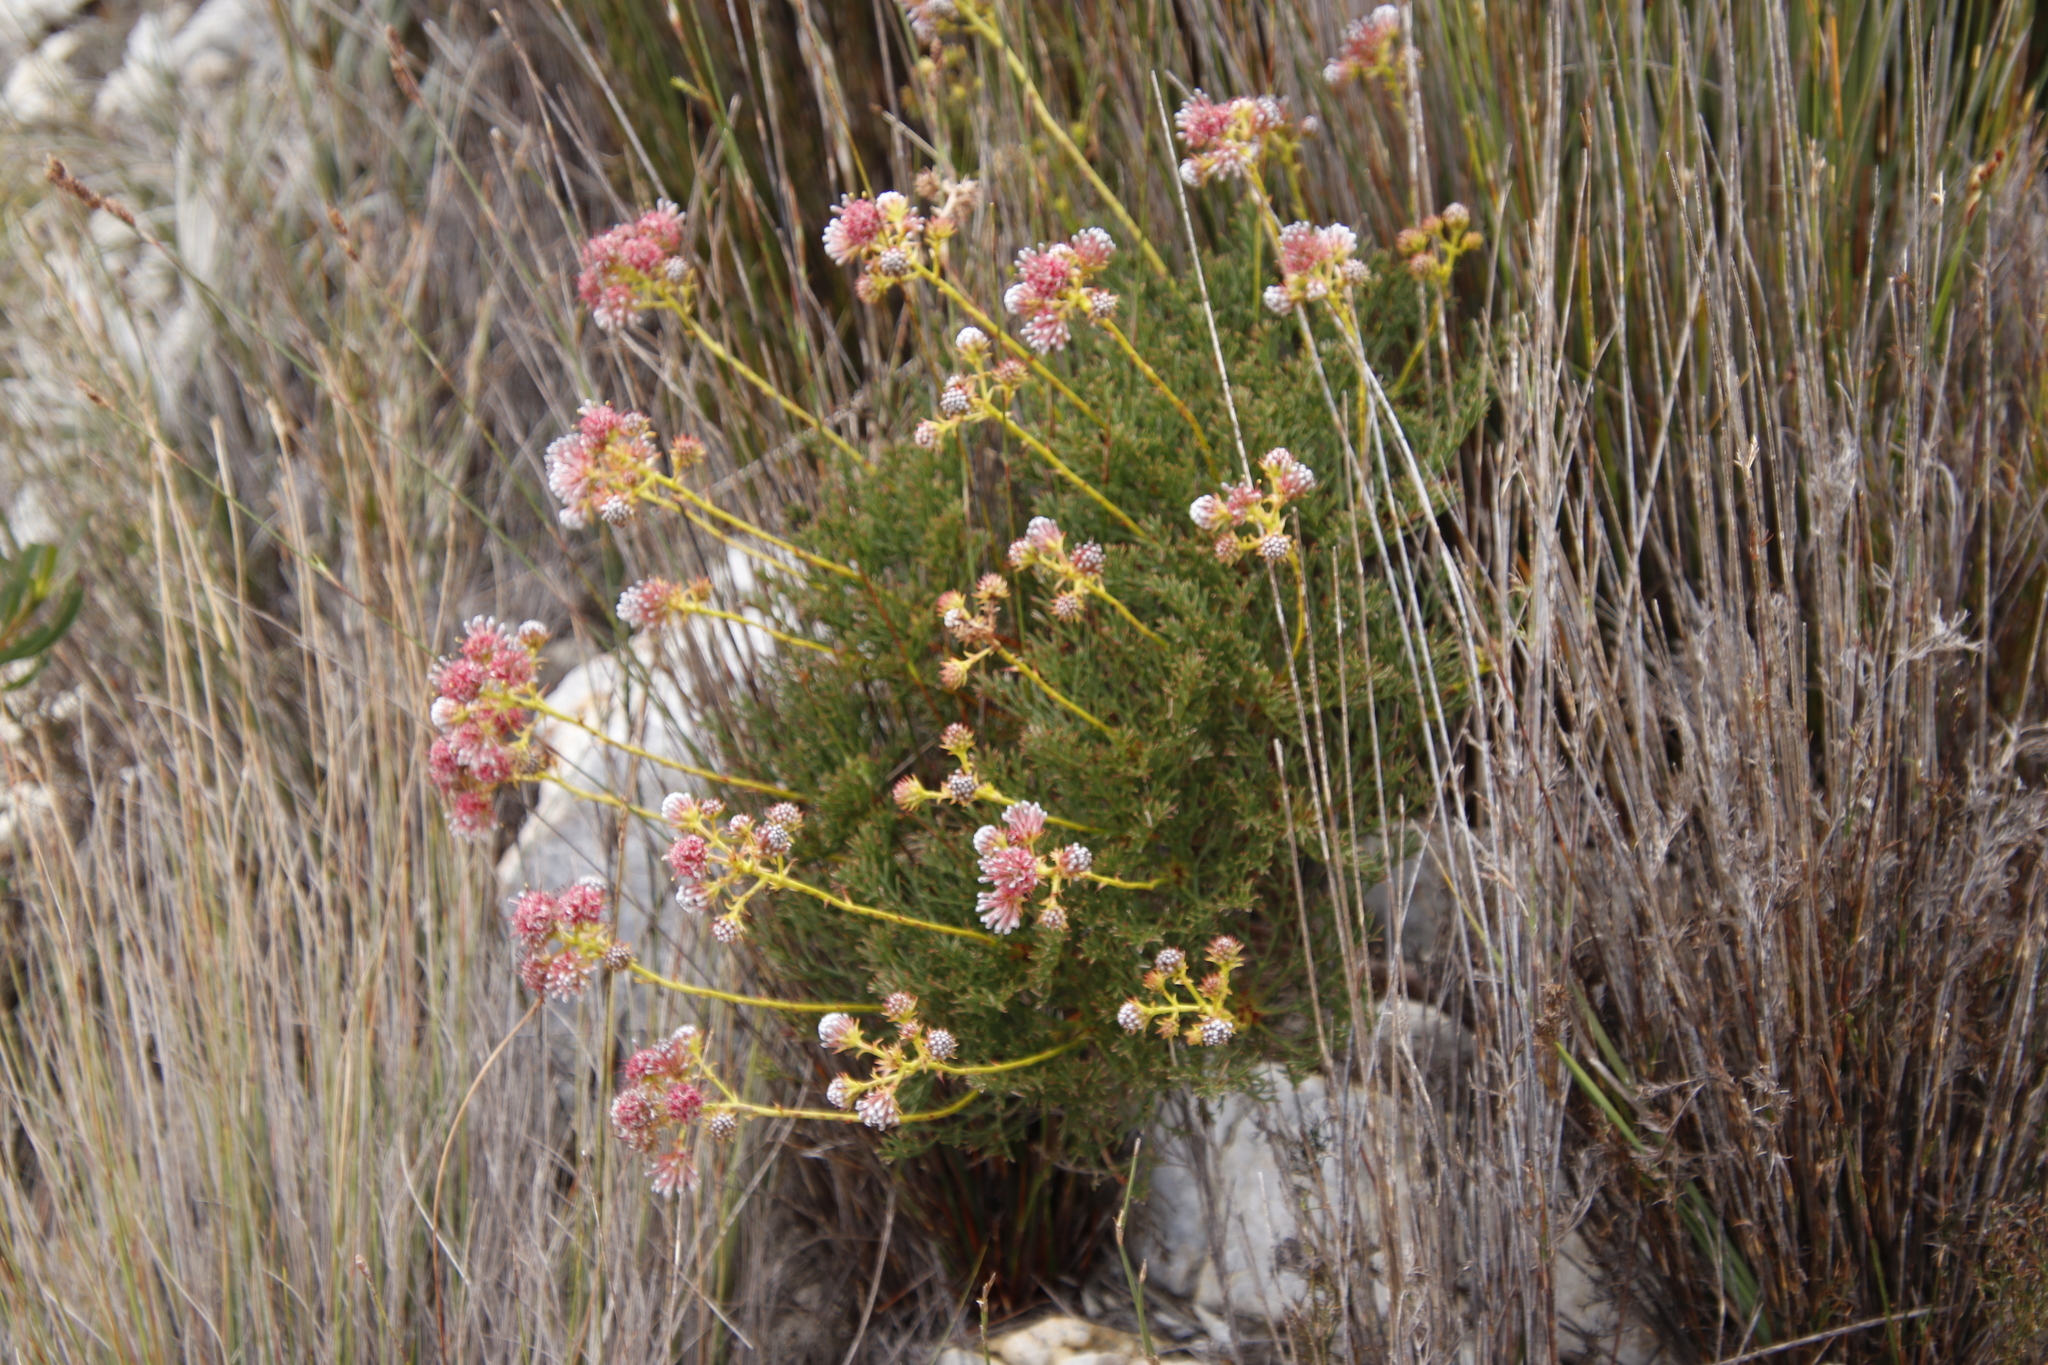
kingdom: Plantae
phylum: Tracheophyta
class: Magnoliopsida
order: Proteales
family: Proteaceae
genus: Serruria
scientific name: Serruria elongata
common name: Long-stalk spiderhead
